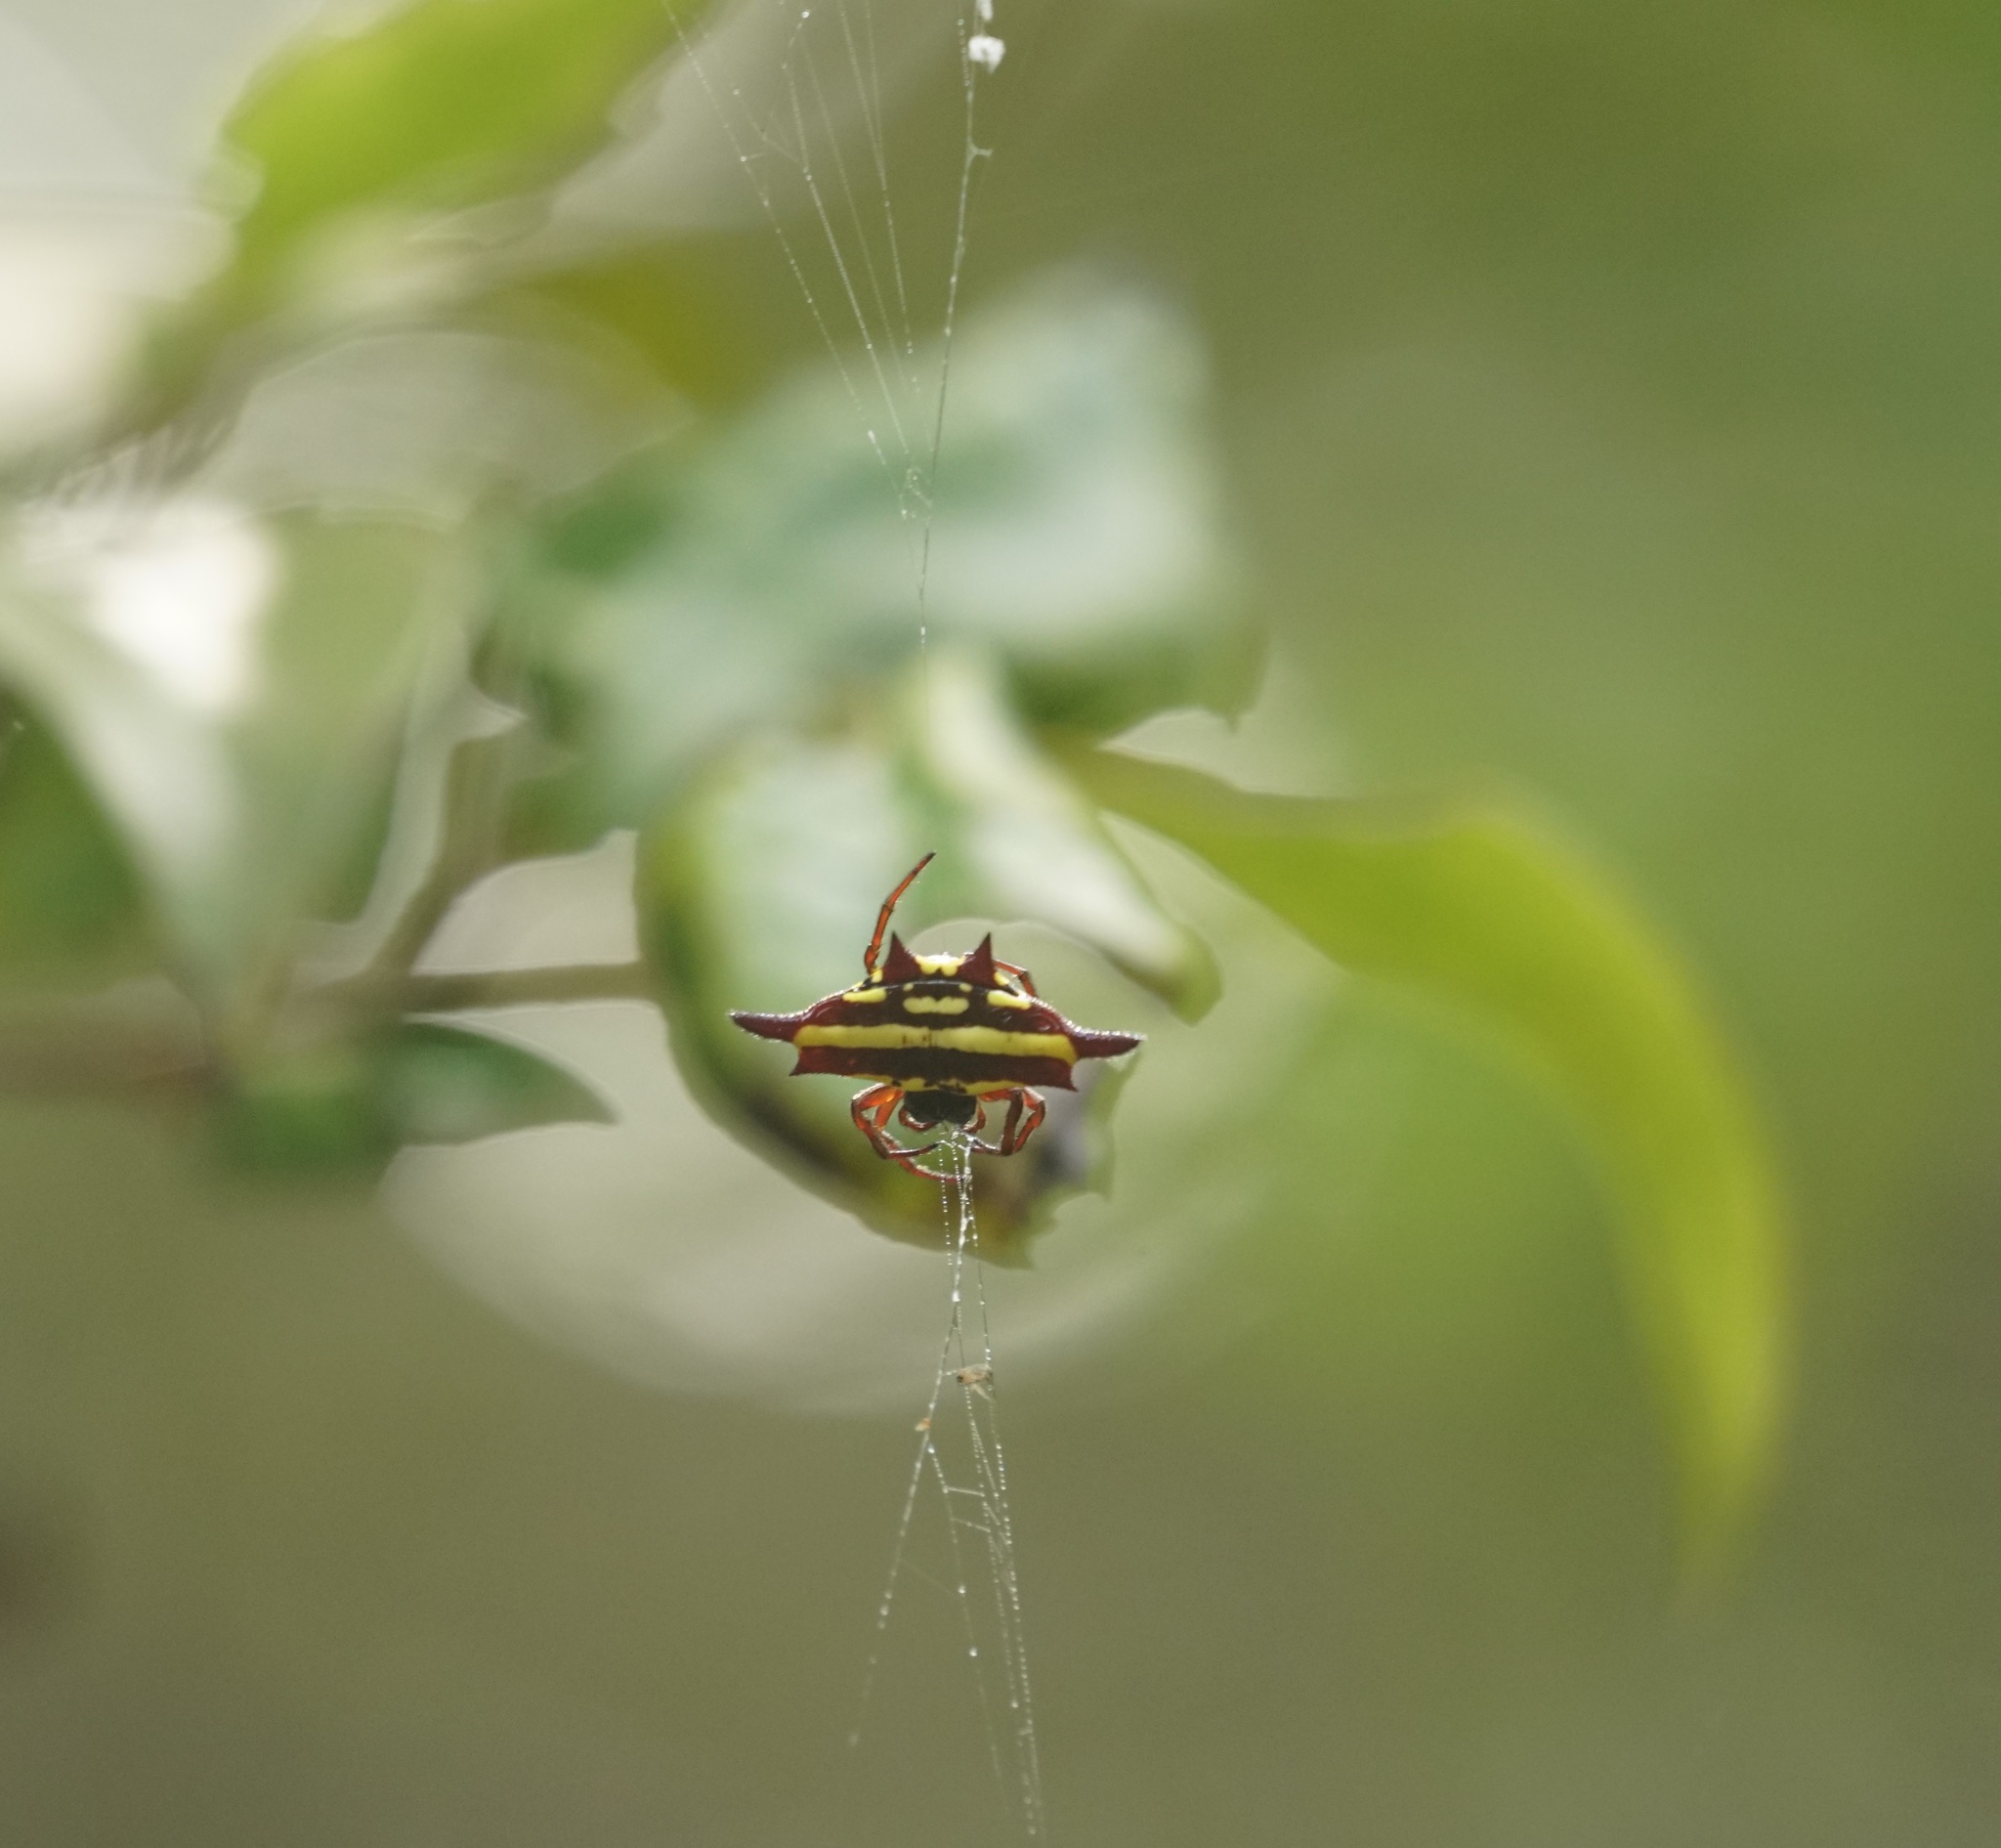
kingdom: Animalia
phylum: Arthropoda
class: Arachnida
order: Araneae
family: Araneidae
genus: Gasteracantha
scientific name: Gasteracantha fornicata
